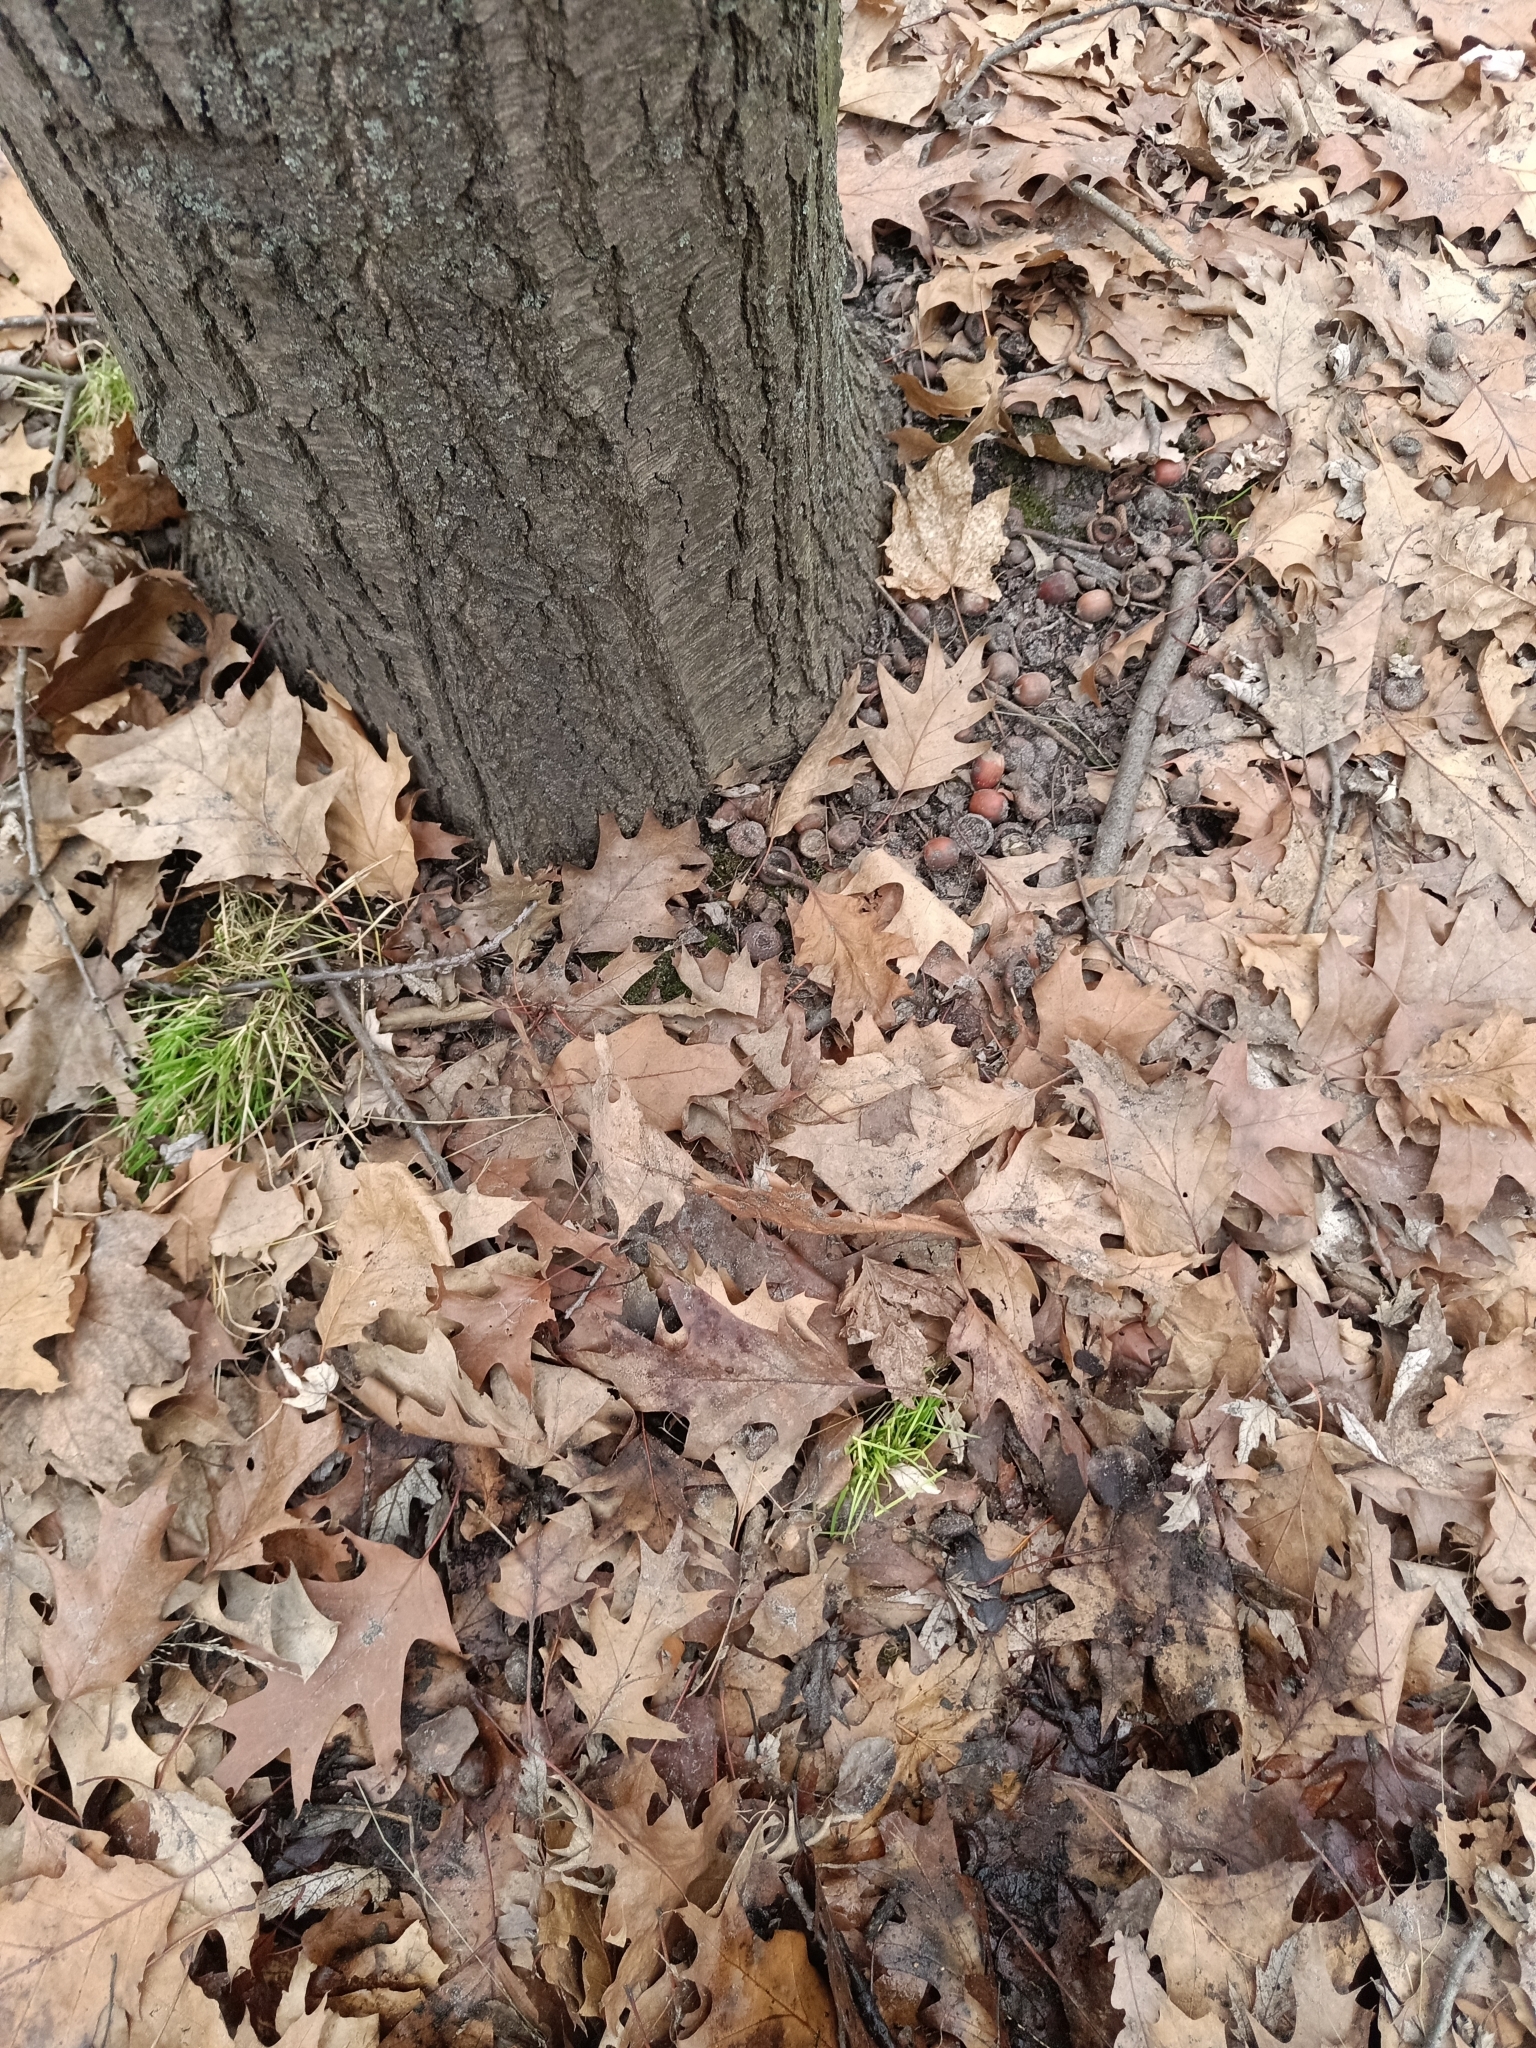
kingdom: Plantae
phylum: Tracheophyta
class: Magnoliopsida
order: Fagales
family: Fagaceae
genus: Quercus
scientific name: Quercus rubra
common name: Red oak
